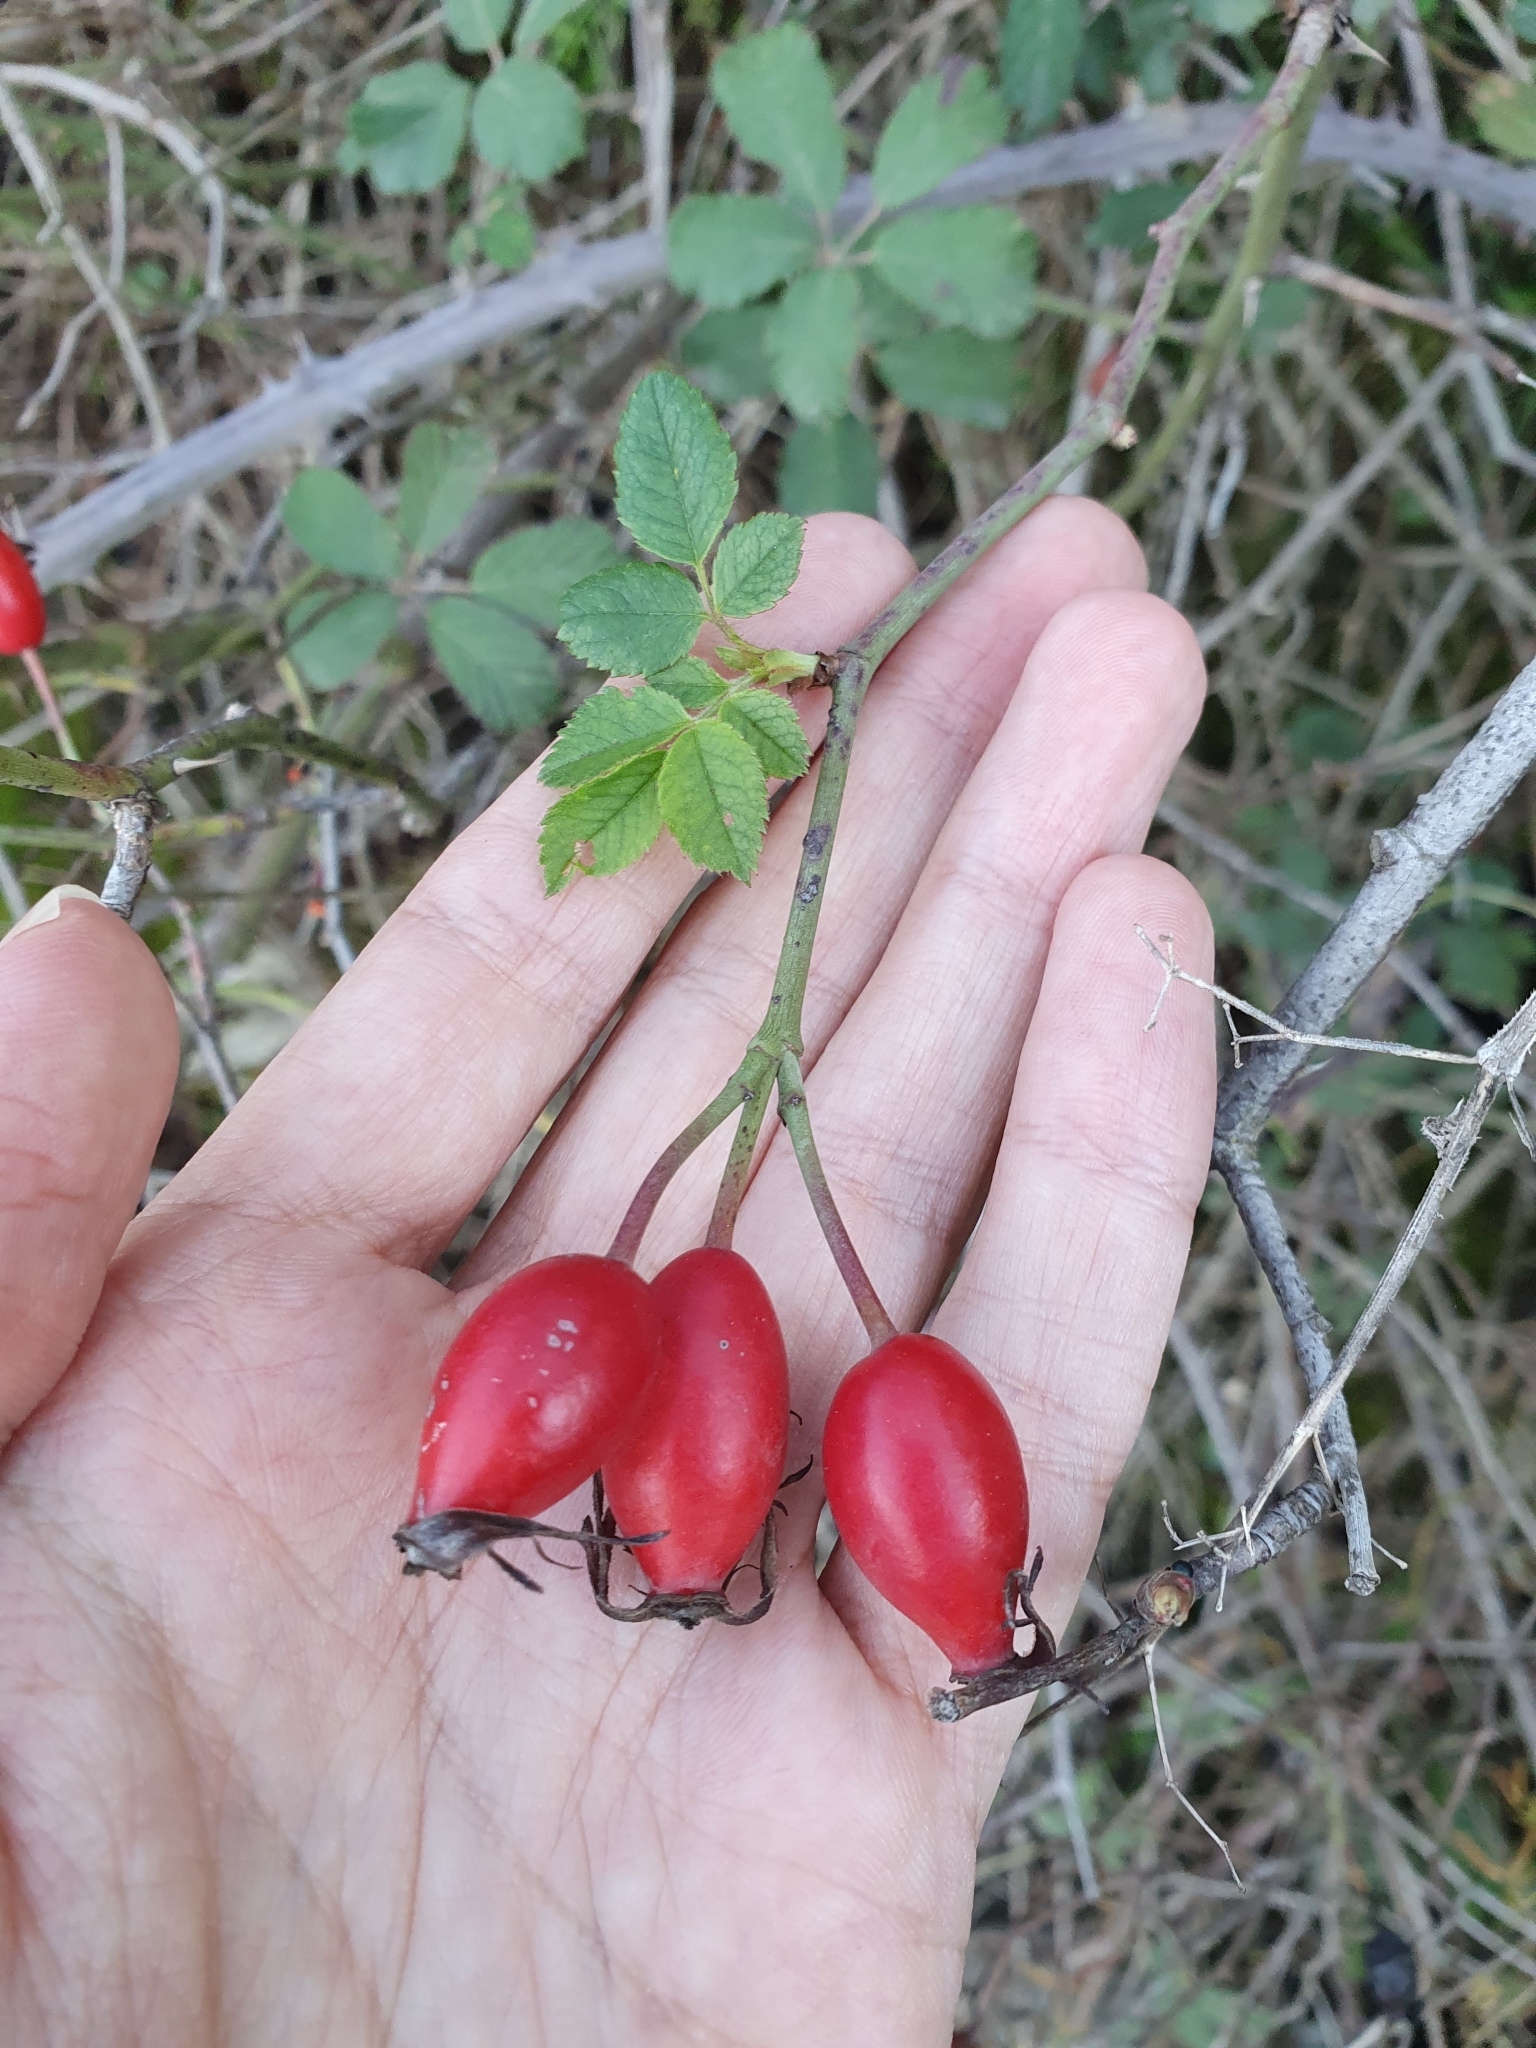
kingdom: Plantae
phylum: Tracheophyta
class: Magnoliopsida
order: Rosales
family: Rosaceae
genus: Rosa
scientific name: Rosa dumalis
